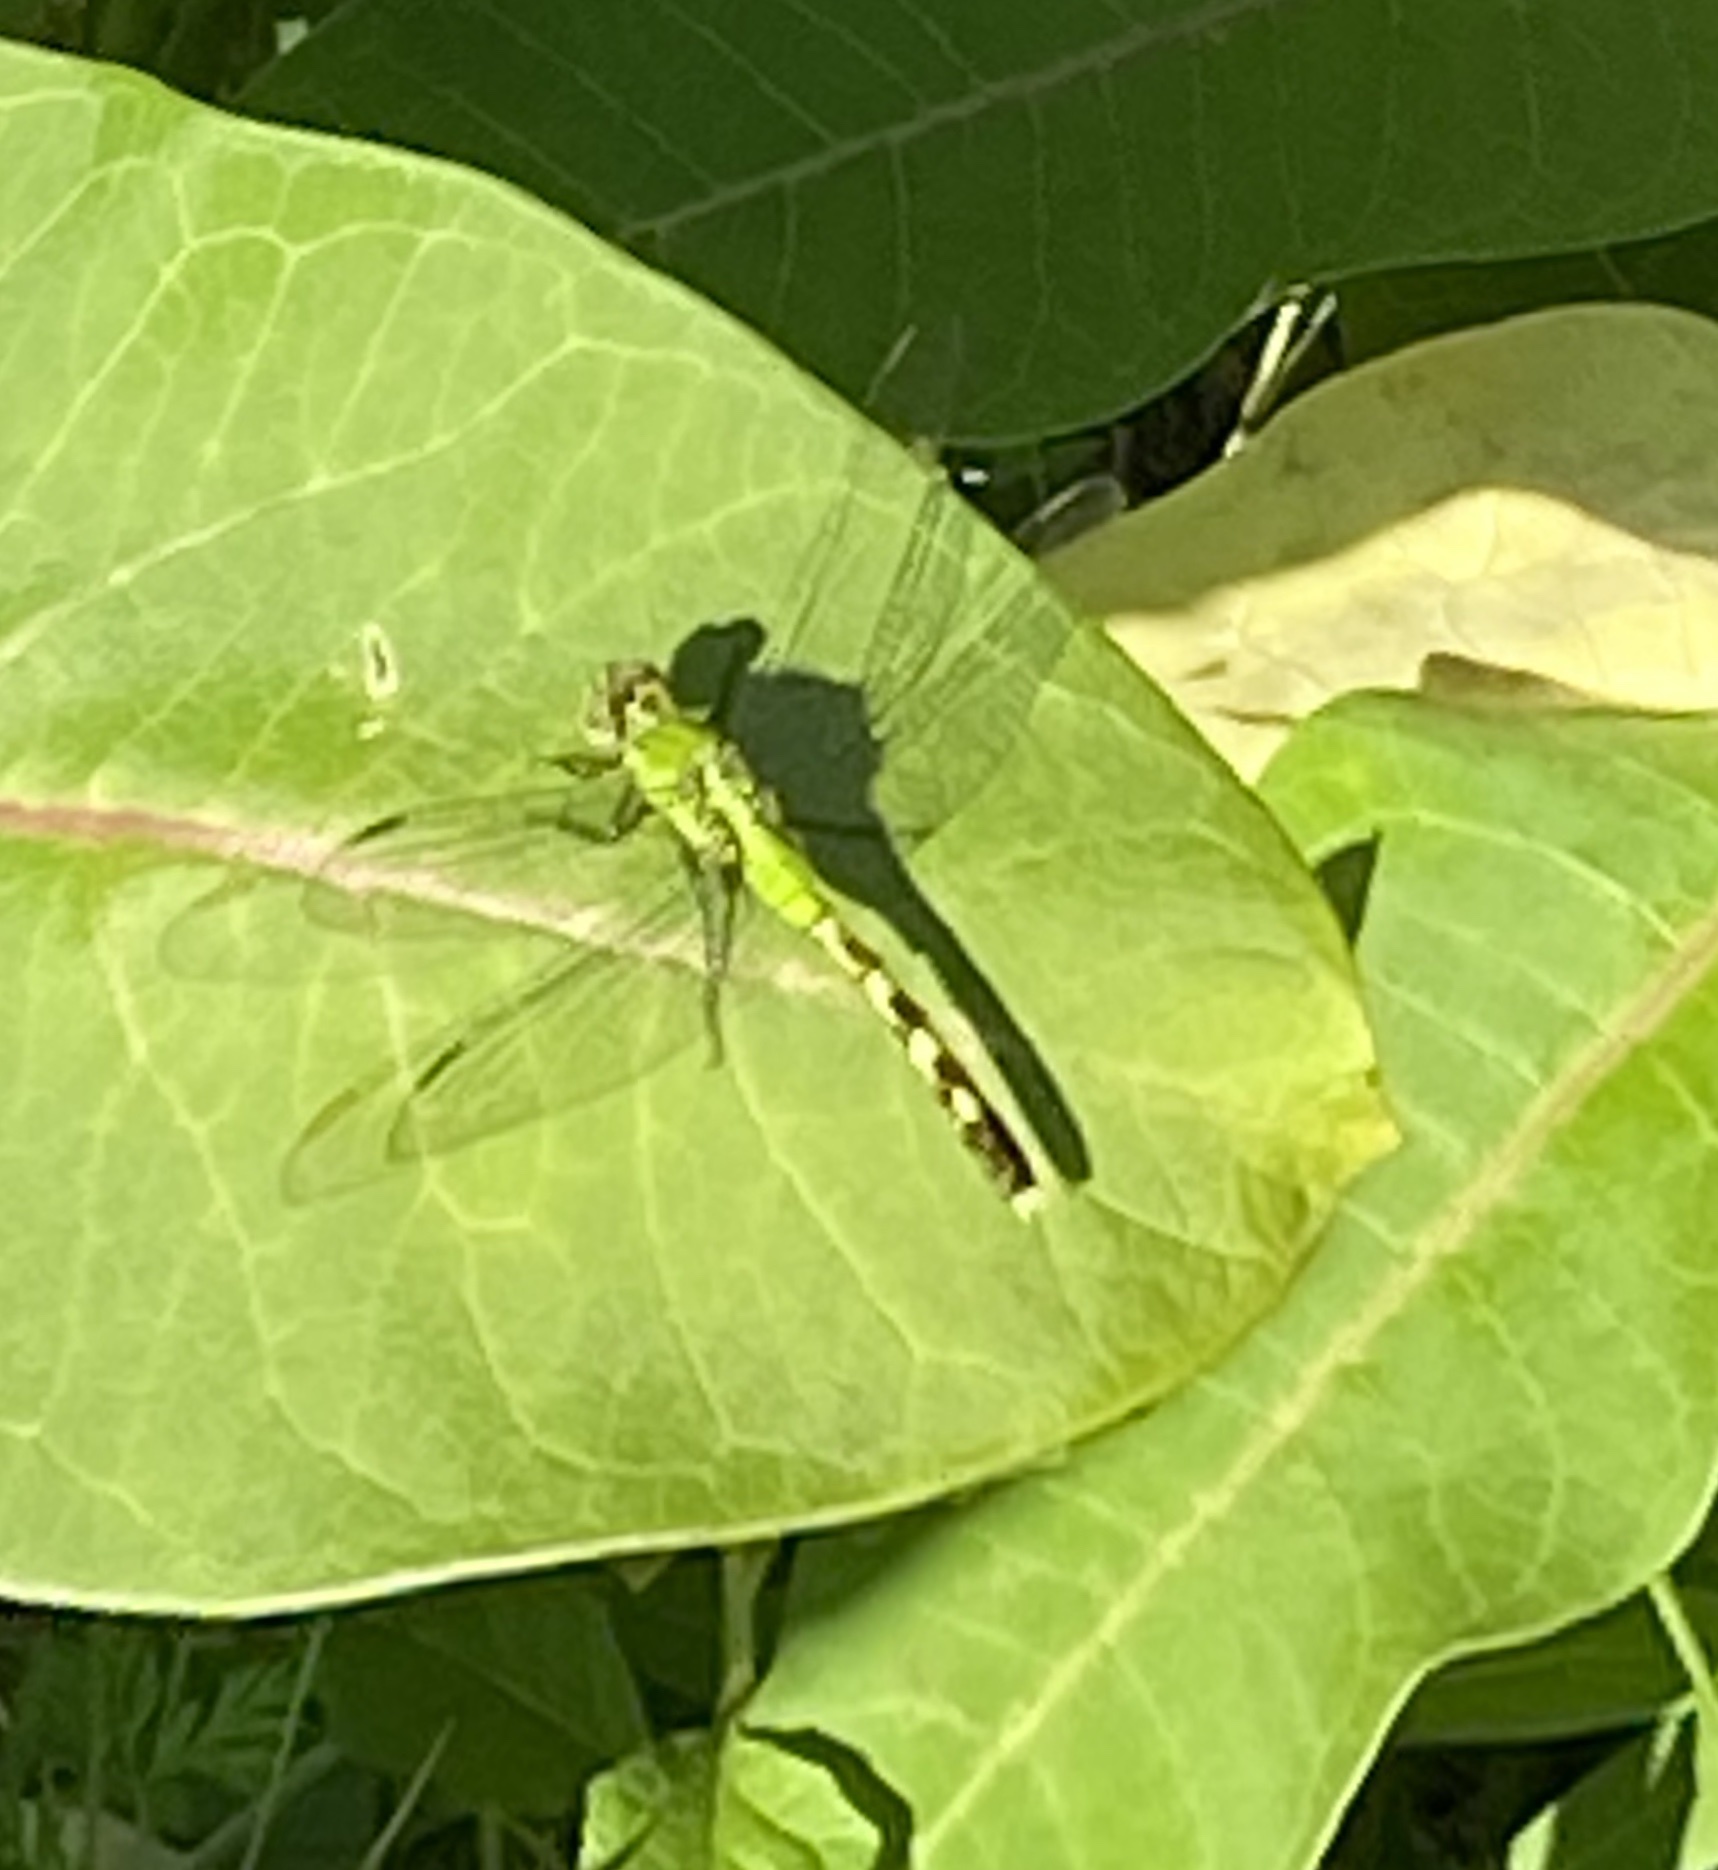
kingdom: Animalia
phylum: Arthropoda
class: Insecta
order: Odonata
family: Libellulidae
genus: Erythemis
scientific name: Erythemis simplicicollis
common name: Eastern pondhawk
